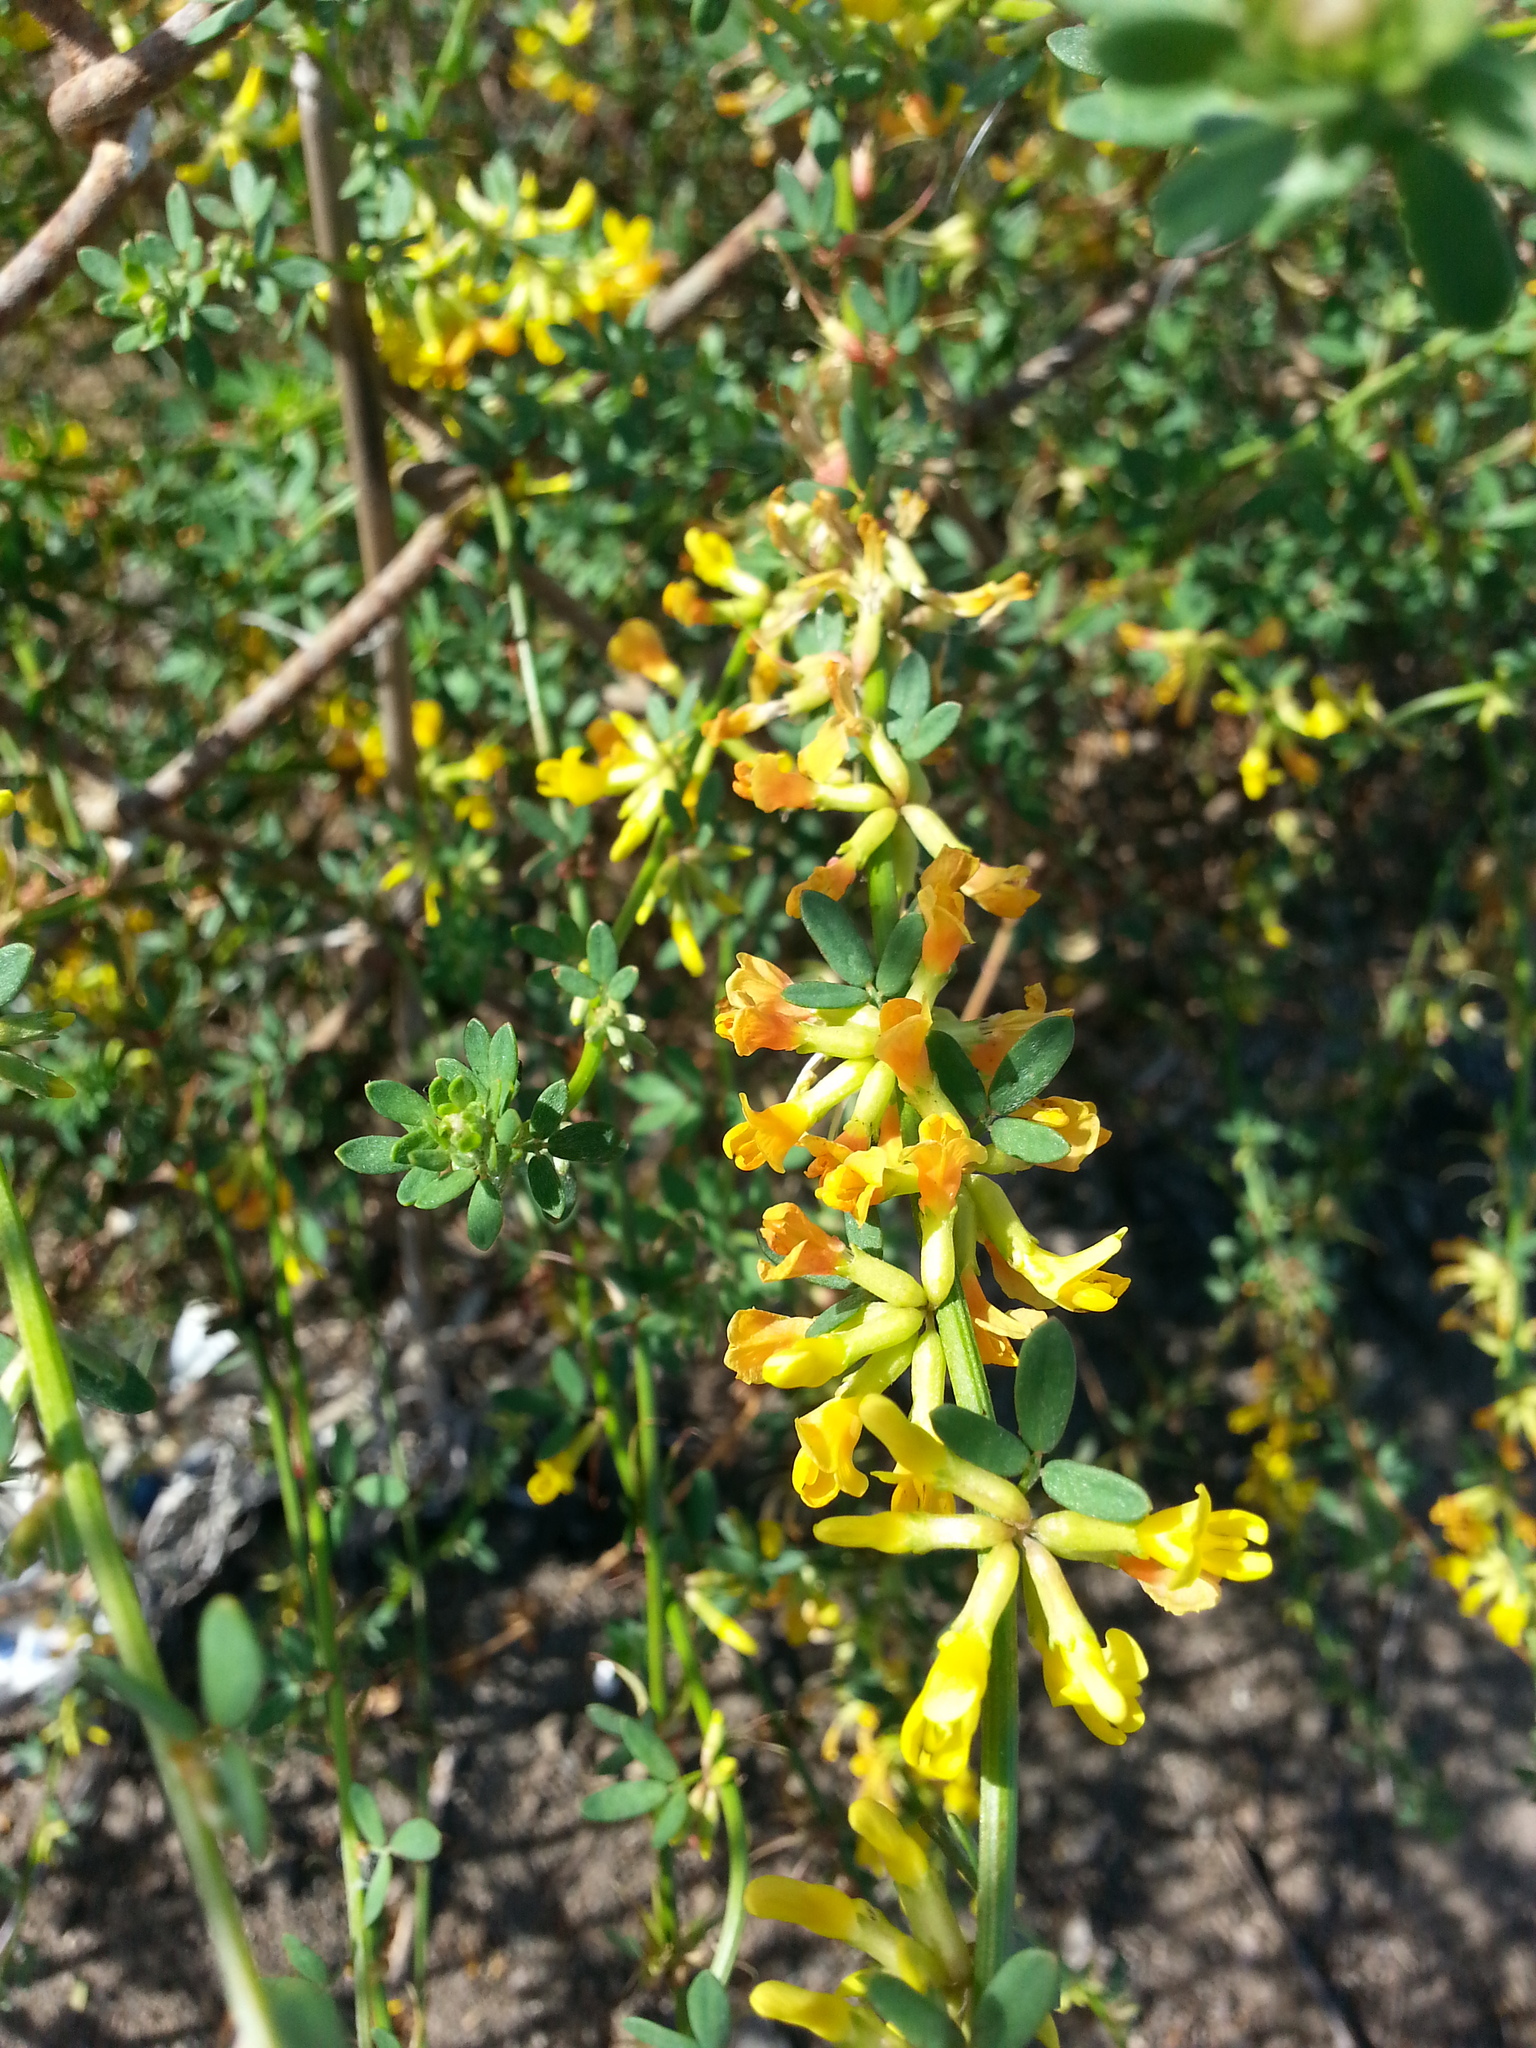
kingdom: Plantae
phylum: Tracheophyta
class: Magnoliopsida
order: Fabales
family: Fabaceae
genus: Acmispon
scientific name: Acmispon glaber
